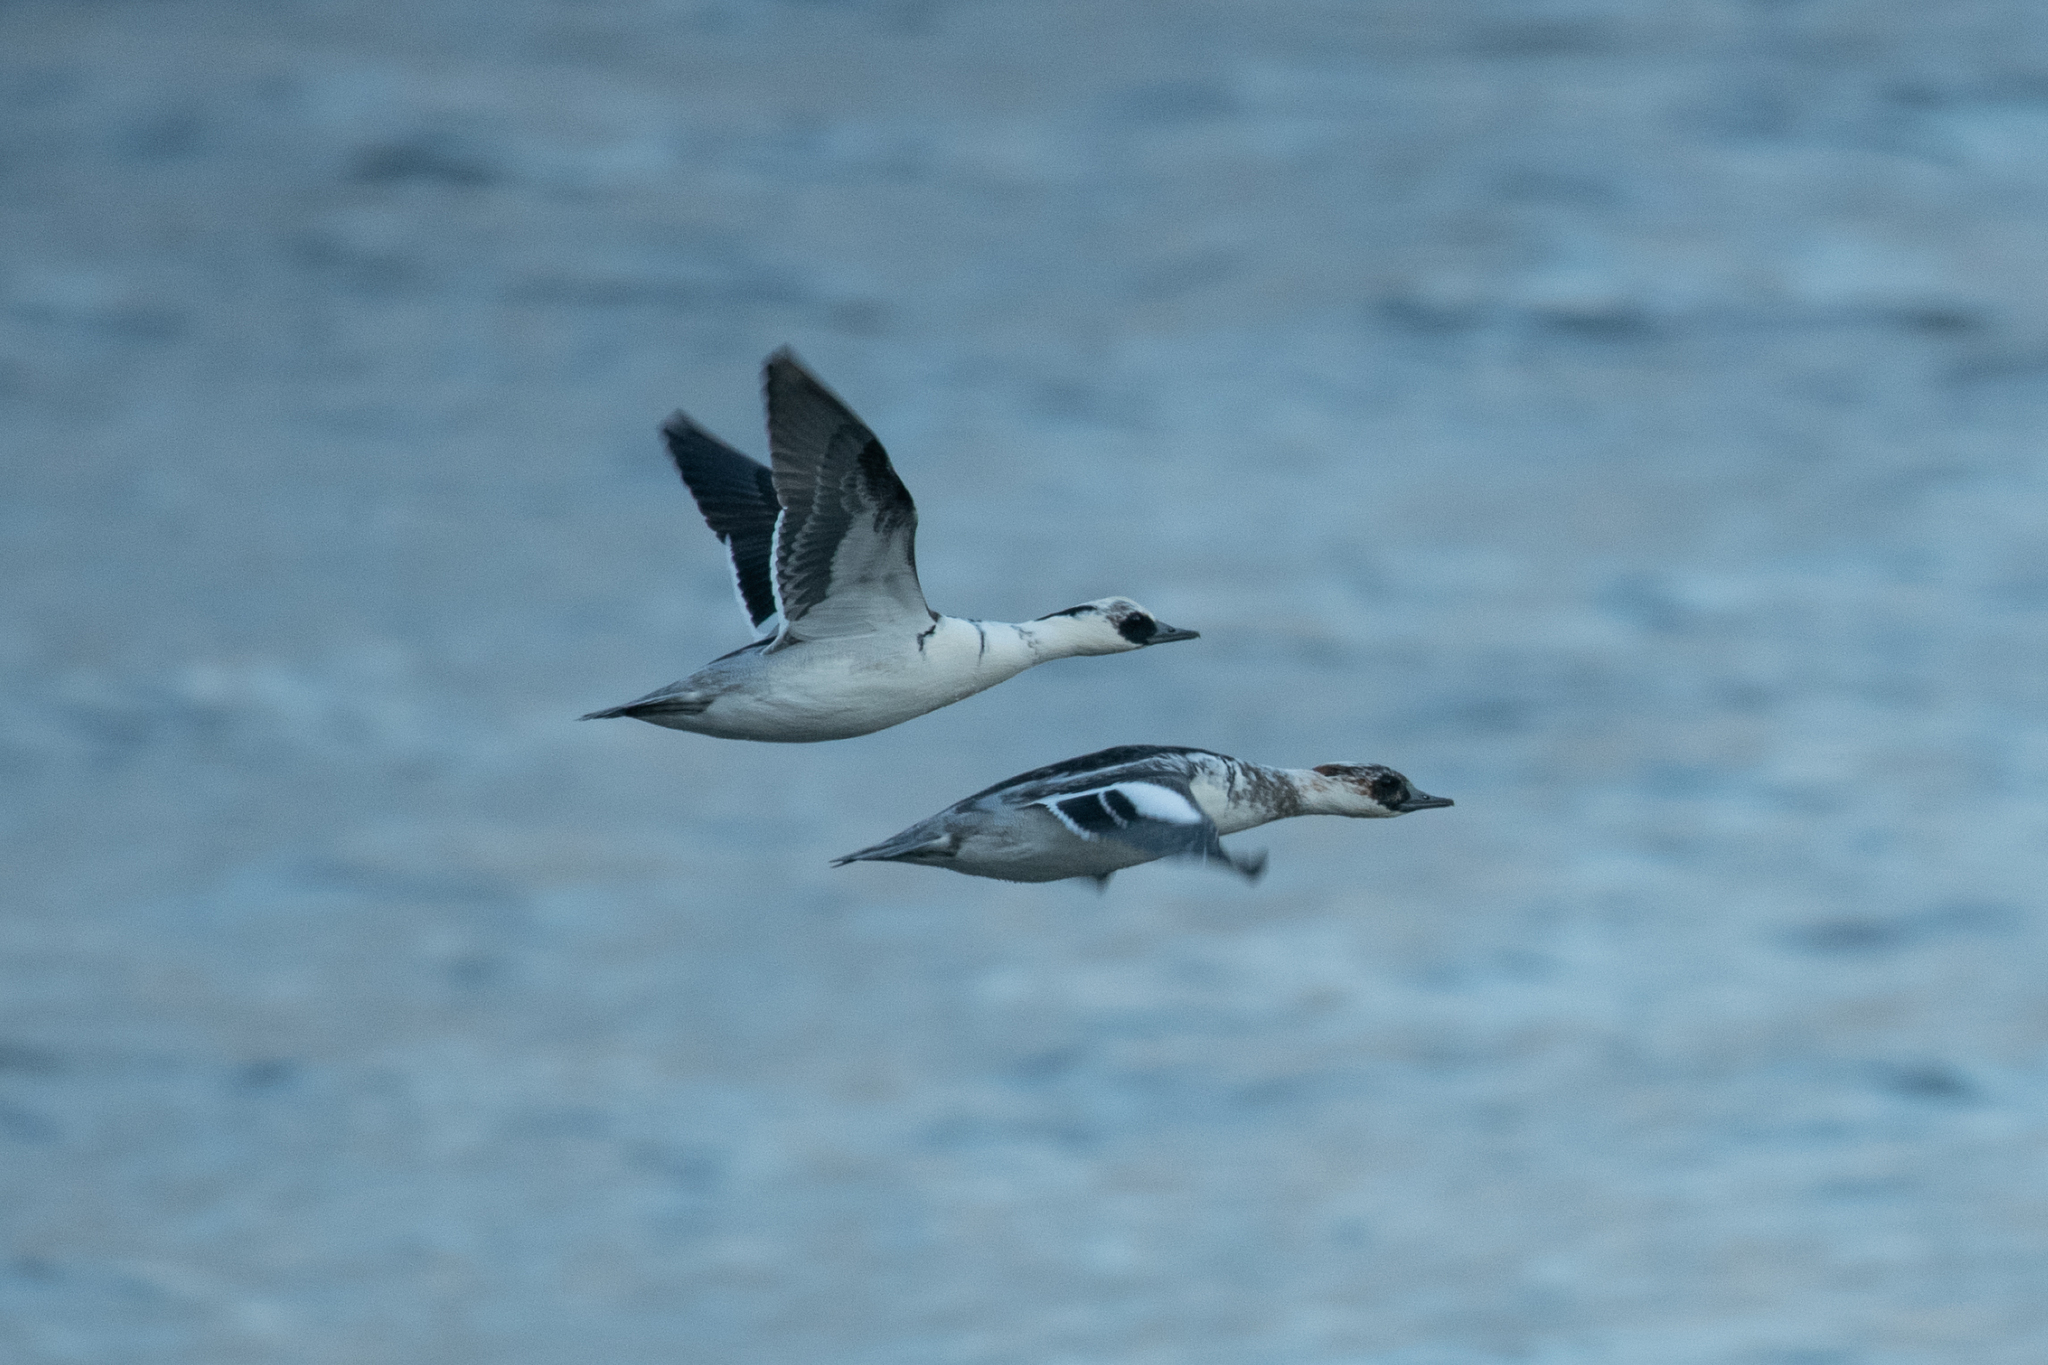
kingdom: Animalia
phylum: Chordata
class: Aves
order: Anseriformes
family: Anatidae
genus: Mergellus
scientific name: Mergellus albellus
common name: Smew
